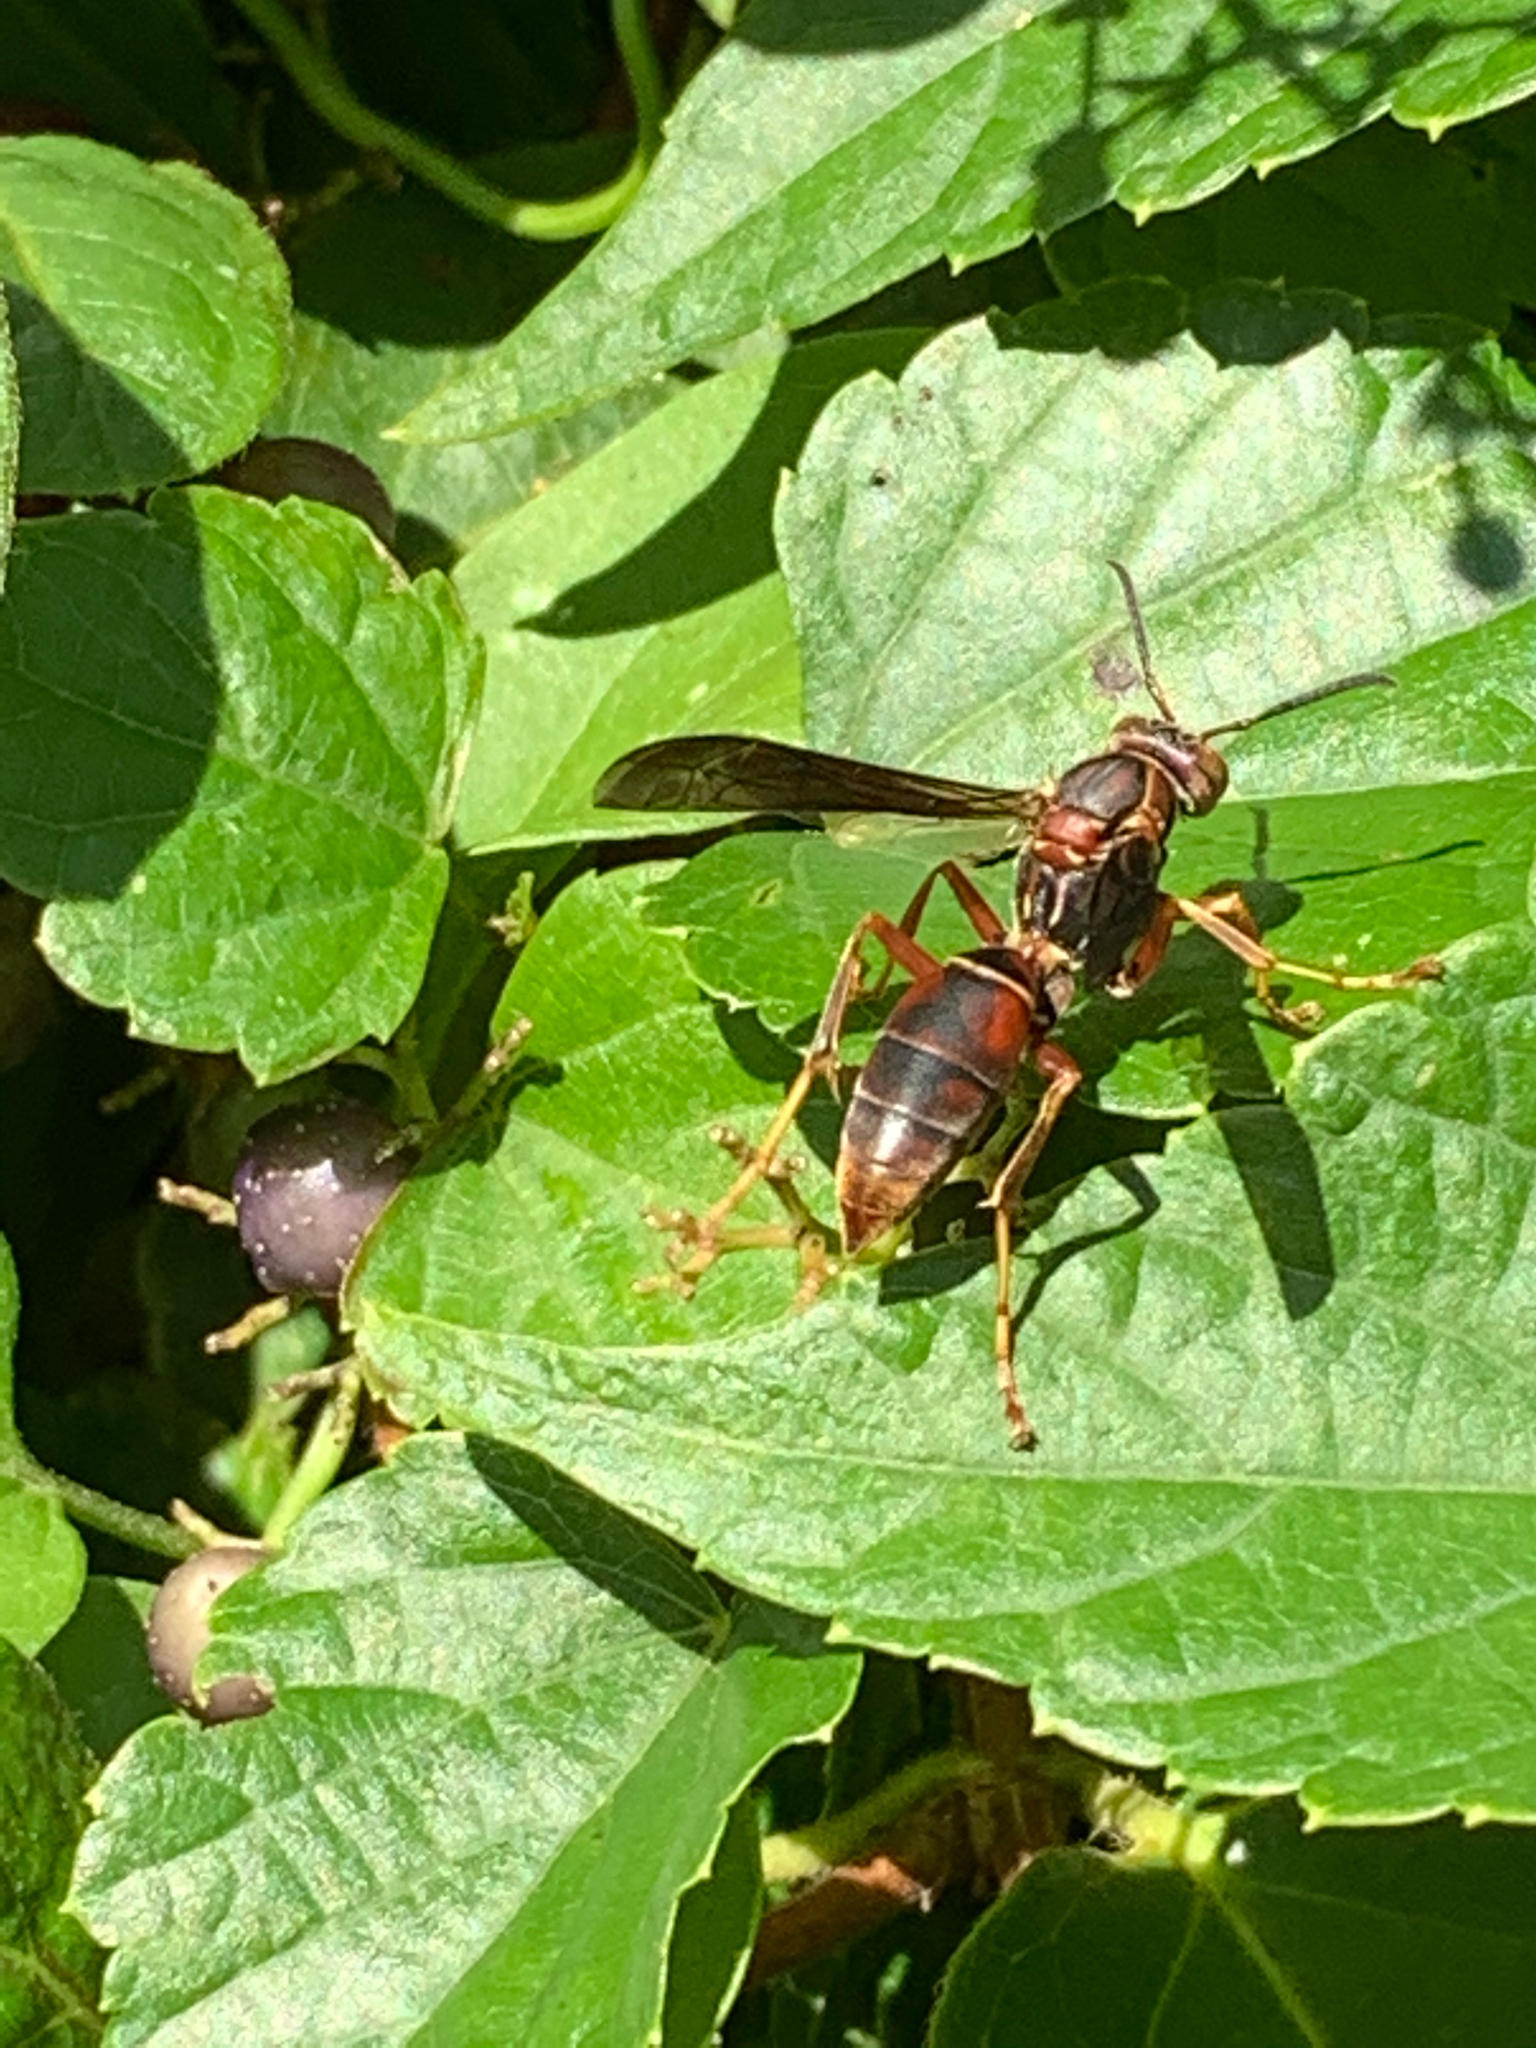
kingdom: Animalia
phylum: Arthropoda
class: Insecta
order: Hymenoptera
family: Eumenidae
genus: Polistes
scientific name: Polistes fuscatus
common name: Dark paper wasp
